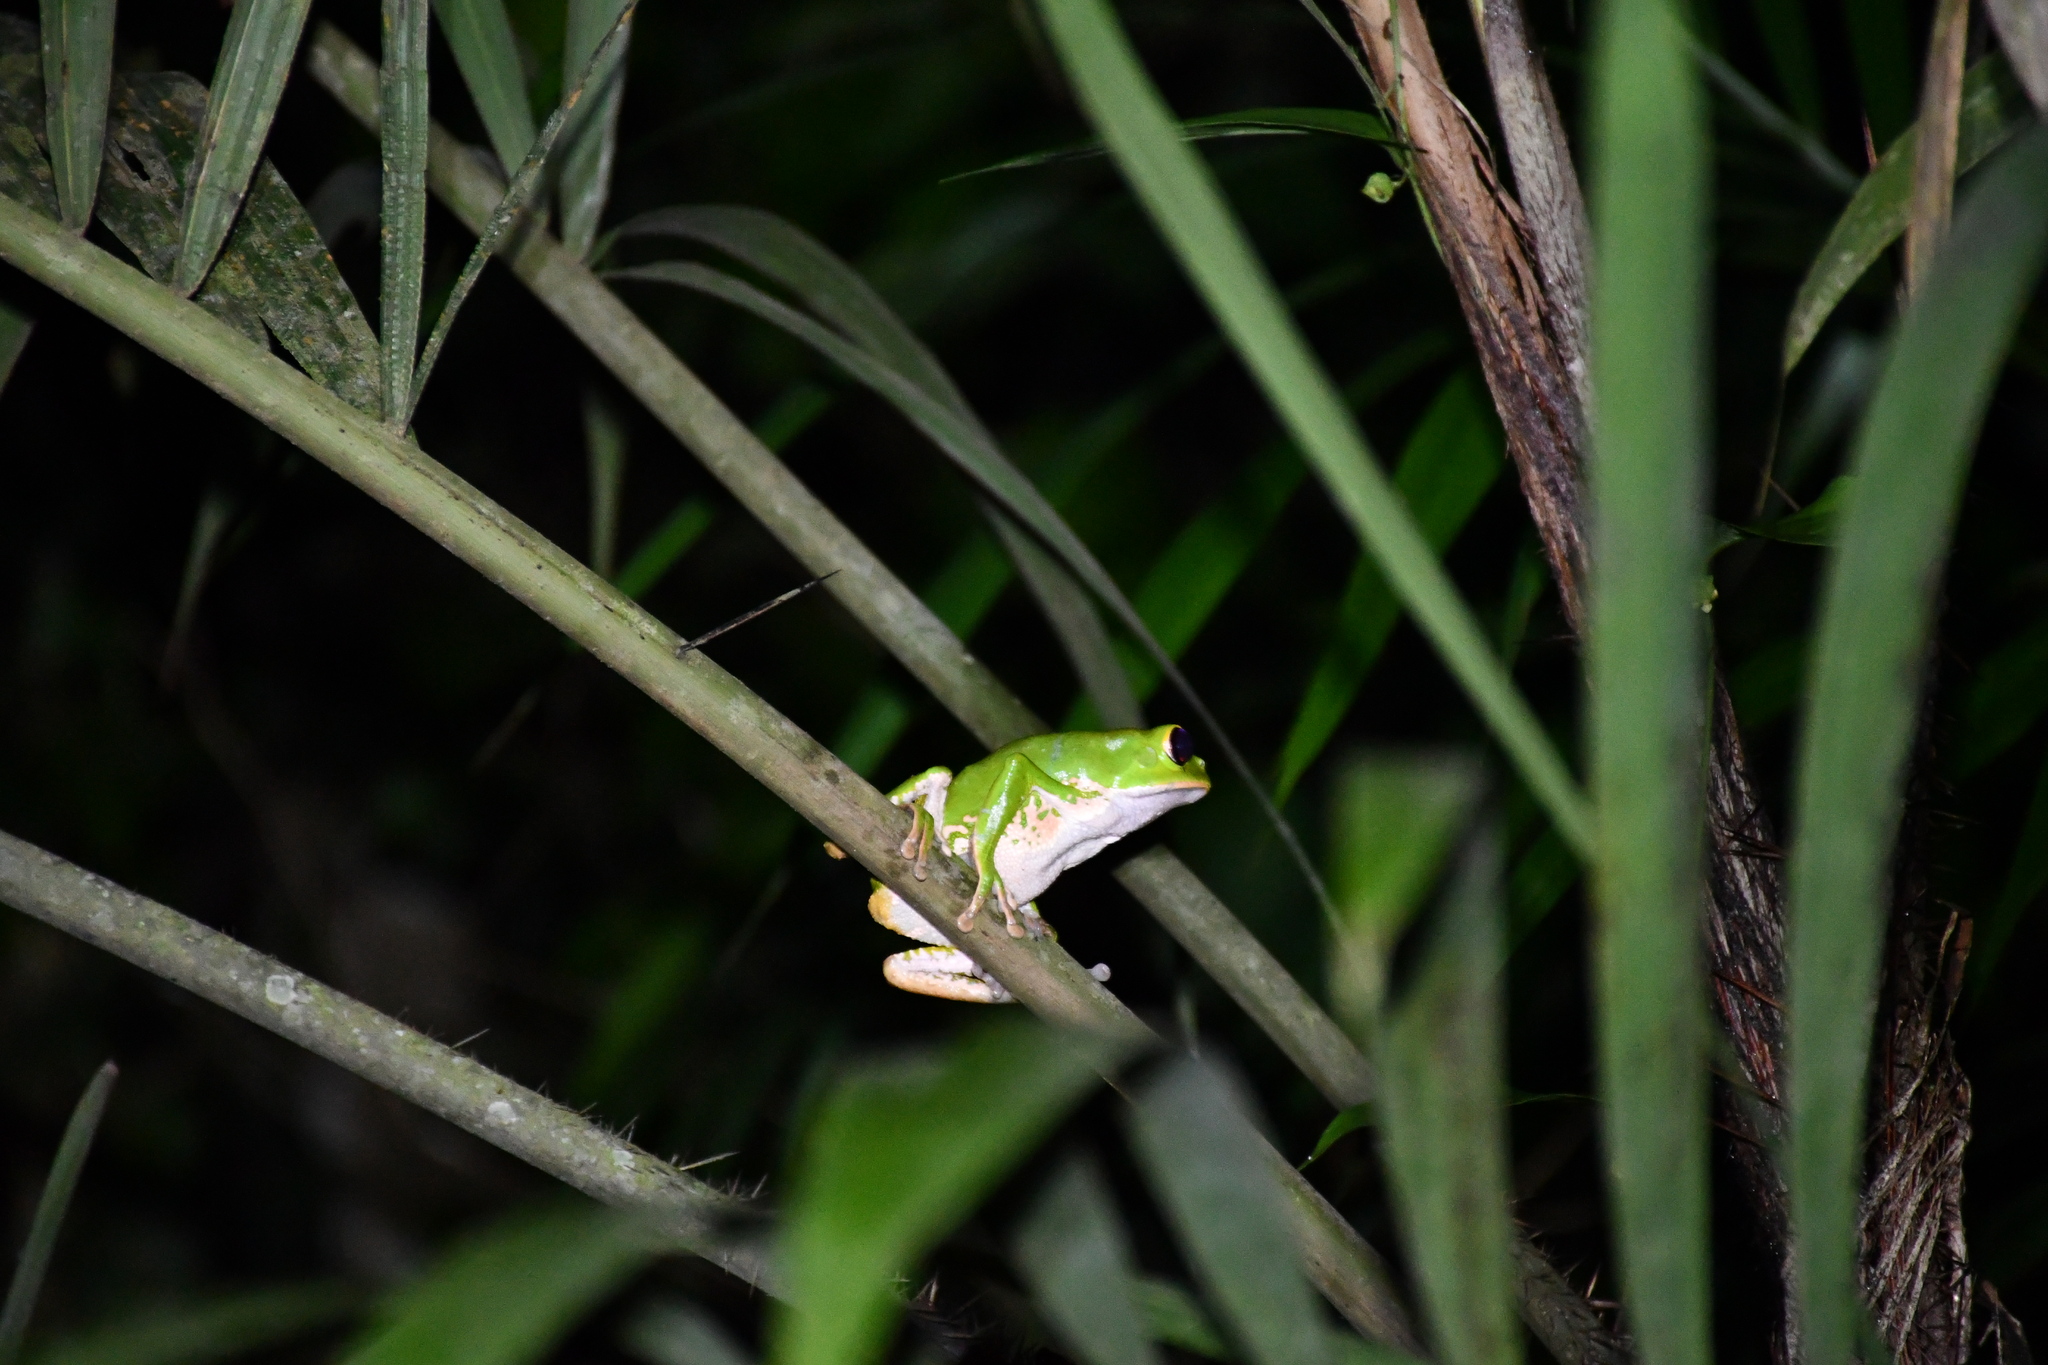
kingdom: Animalia
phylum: Chordata
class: Amphibia
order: Anura
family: Phyllomedusidae
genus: Phyllomedusa
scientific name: Phyllomedusa camba
